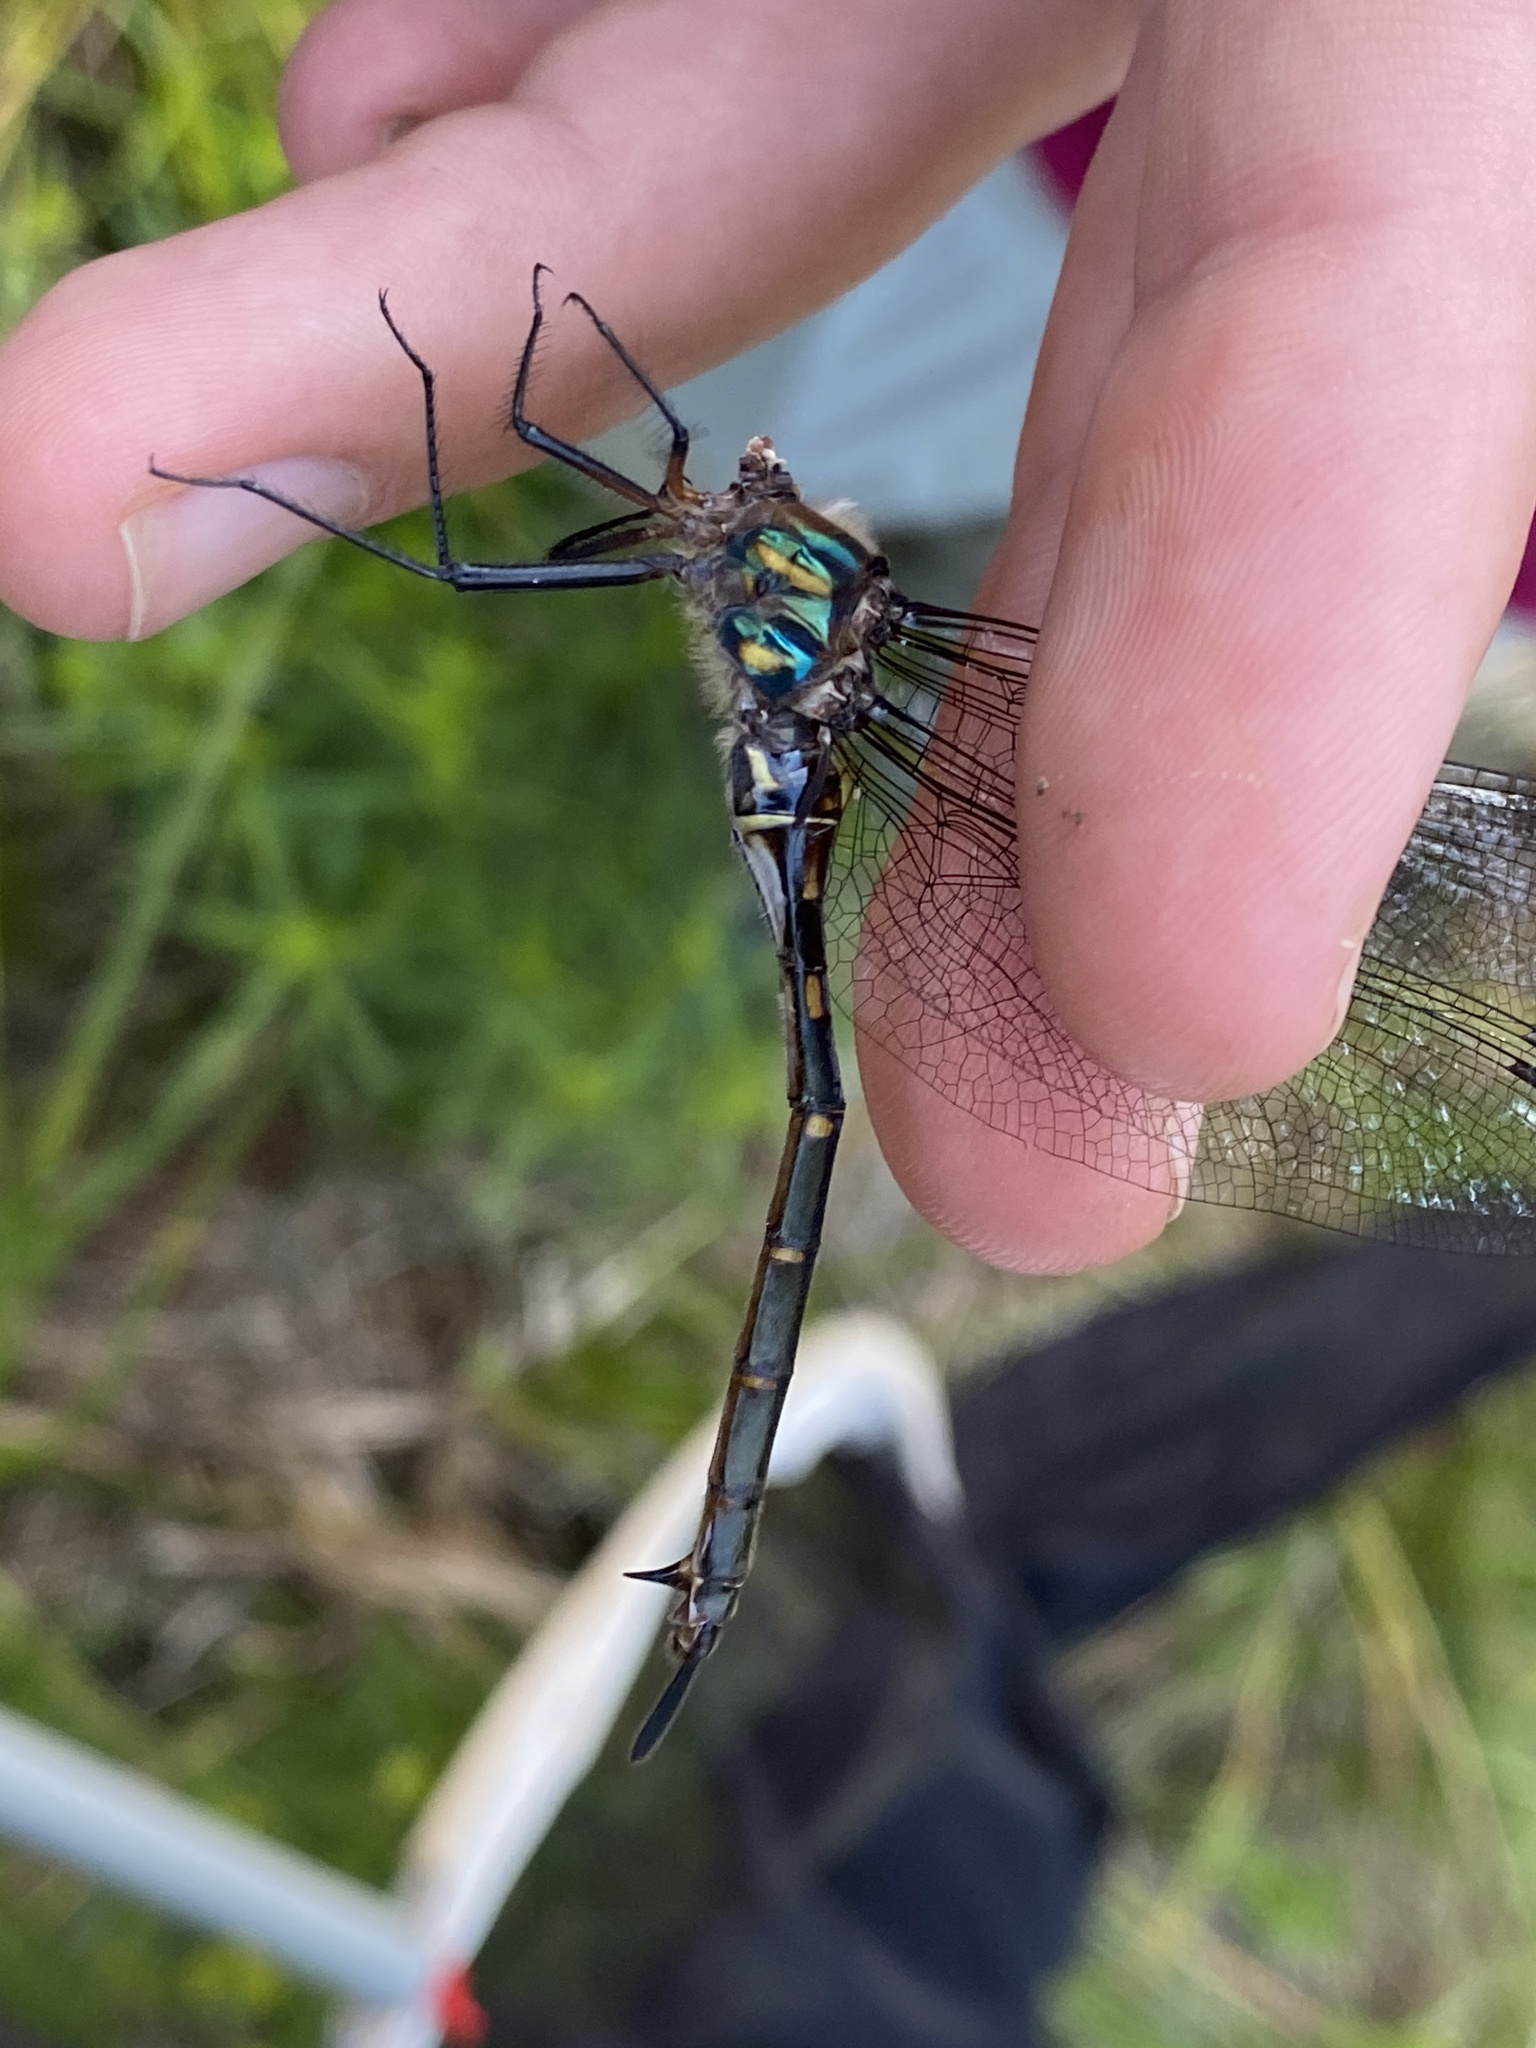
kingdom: Animalia
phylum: Arthropoda
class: Insecta
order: Odonata
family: Corduliidae
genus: Somatochlora
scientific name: Somatochlora williamsoni
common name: Williamson's emerald
